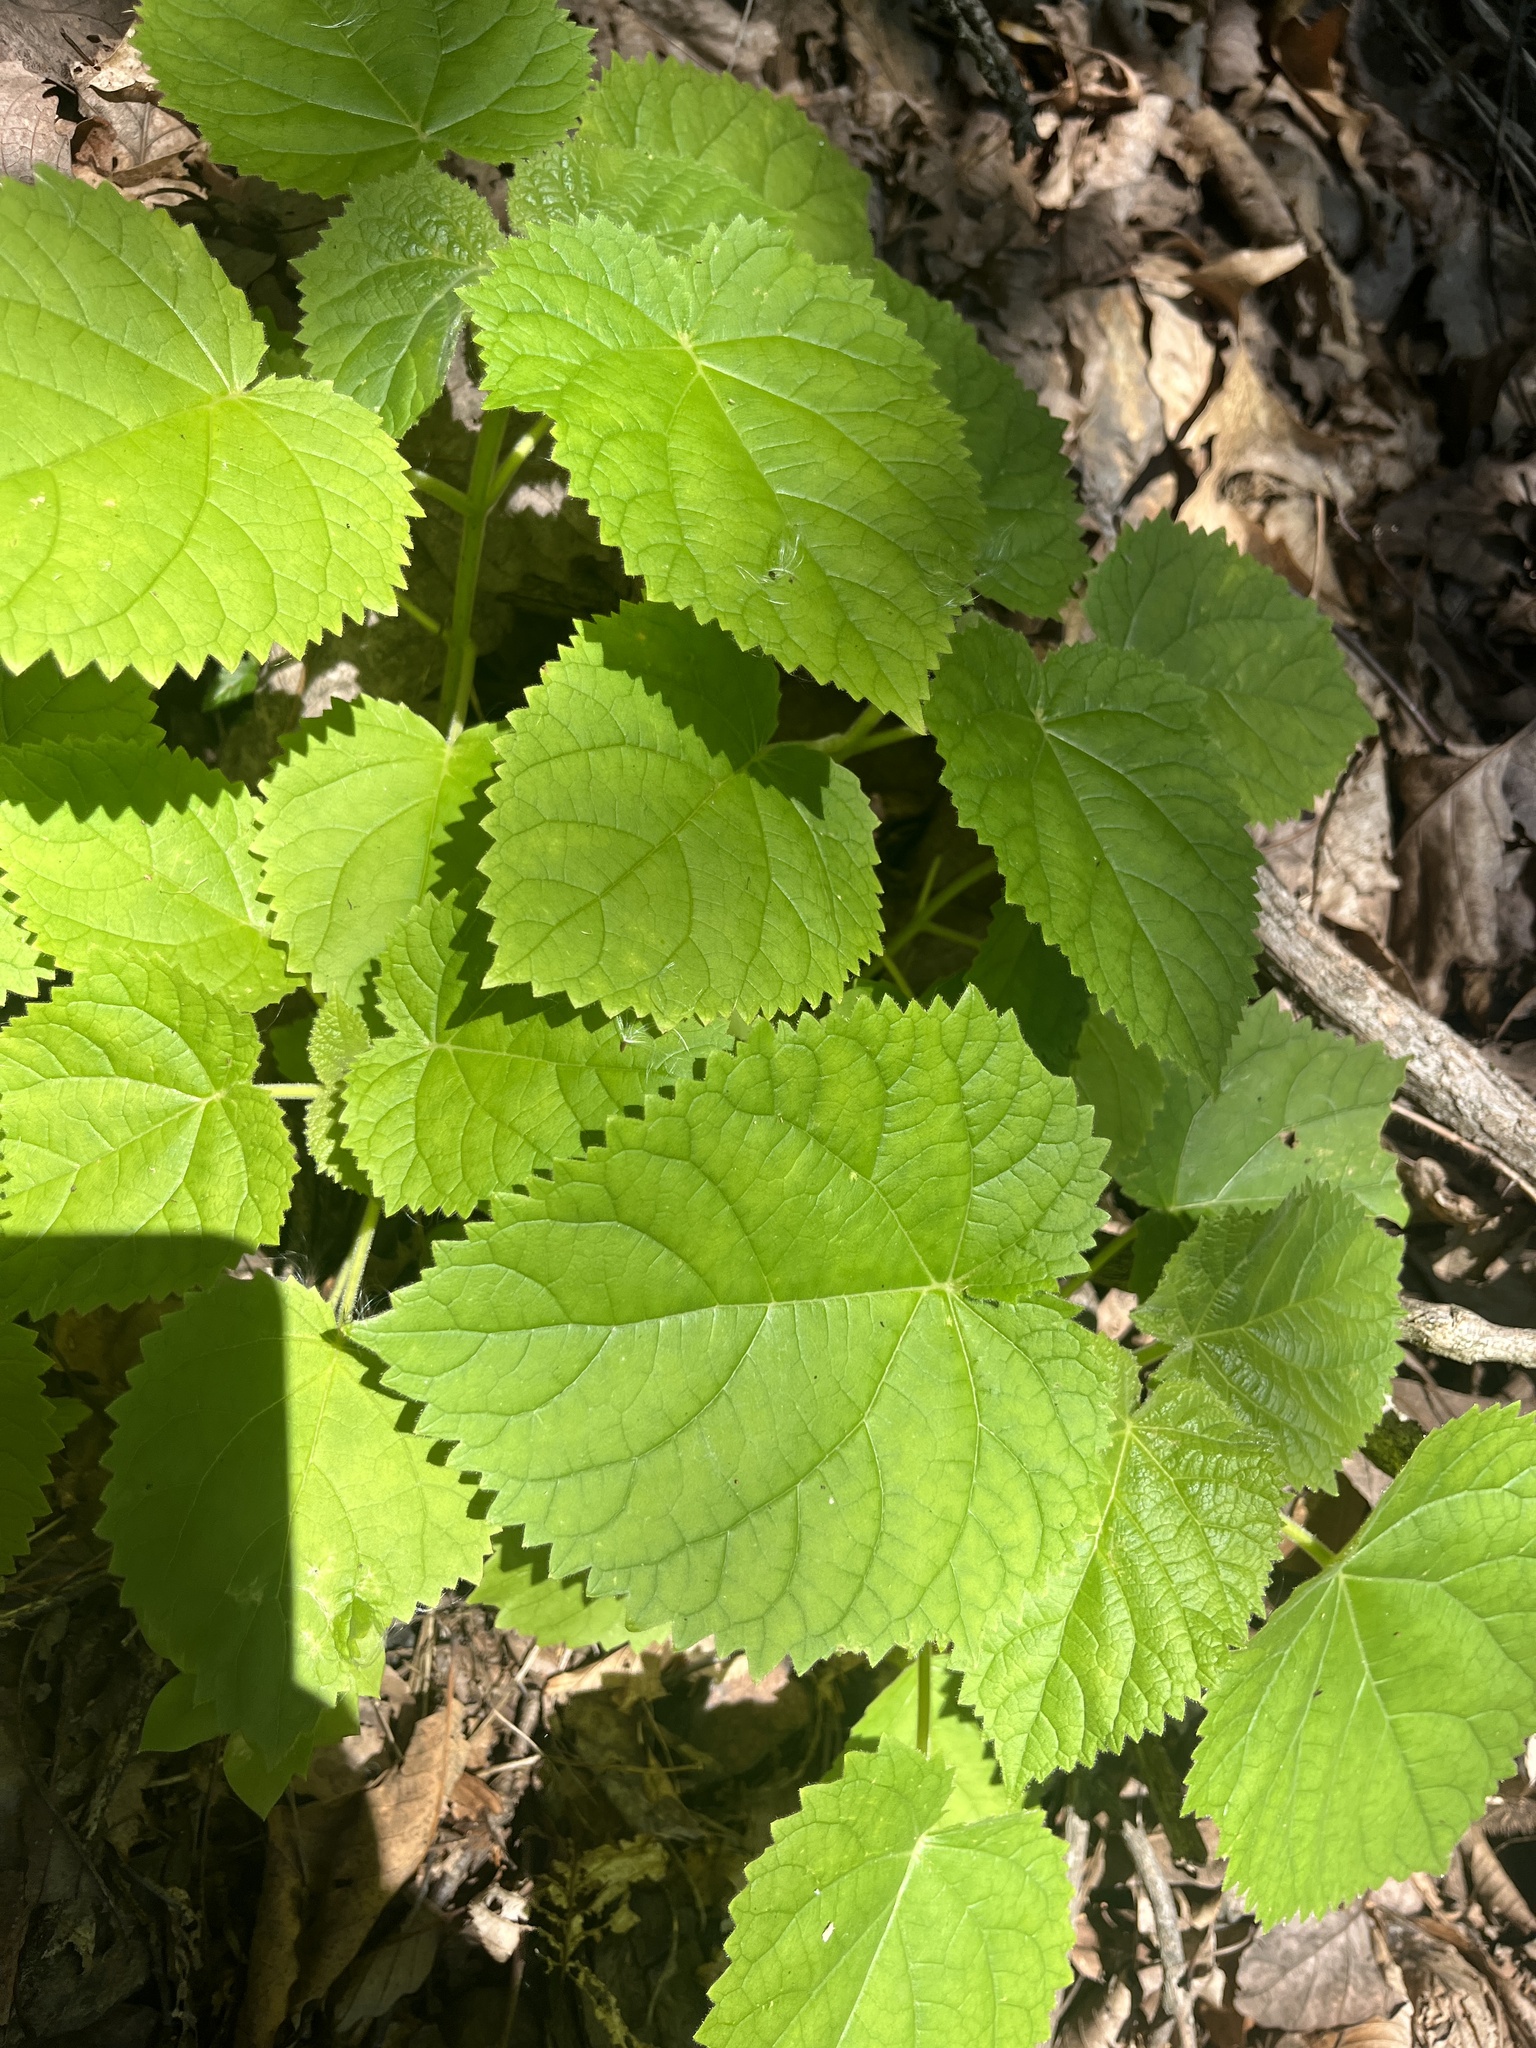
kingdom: Plantae
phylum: Tracheophyta
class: Magnoliopsida
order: Lamiales
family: Paulowniaceae
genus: Paulownia
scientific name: Paulownia tomentosa
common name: Foxglove-tree
